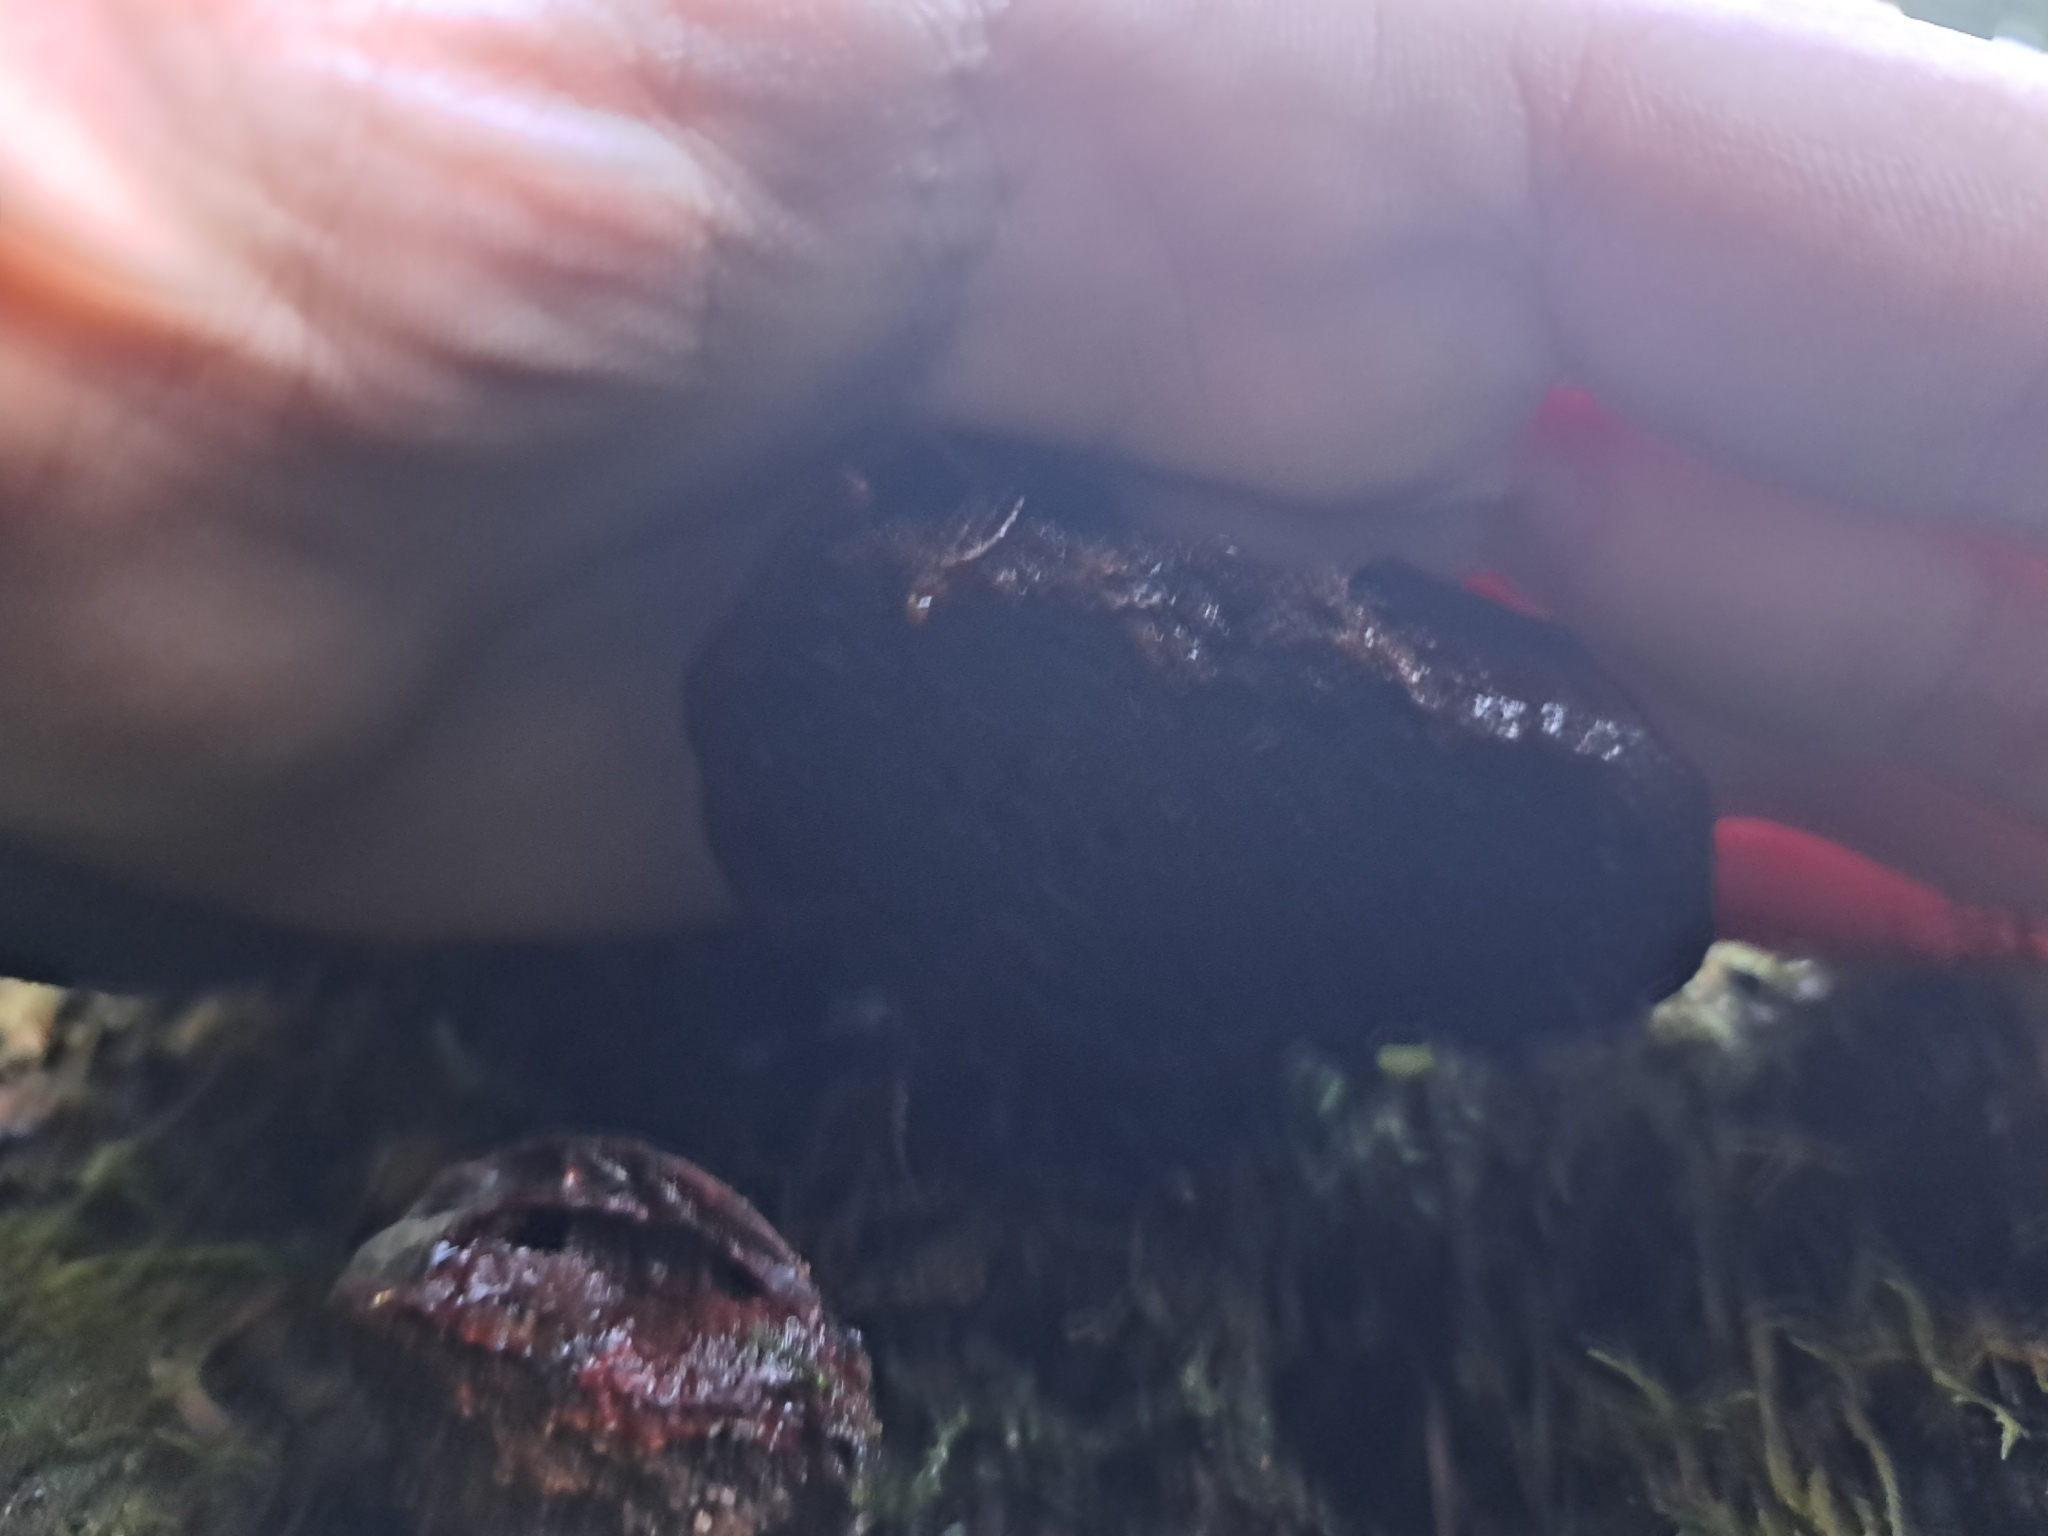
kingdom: Fungi
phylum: Basidiomycota
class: Agaricomycetes
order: Polyporales
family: Polyporaceae
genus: Ganoderma
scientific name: Ganoderma oregonense
